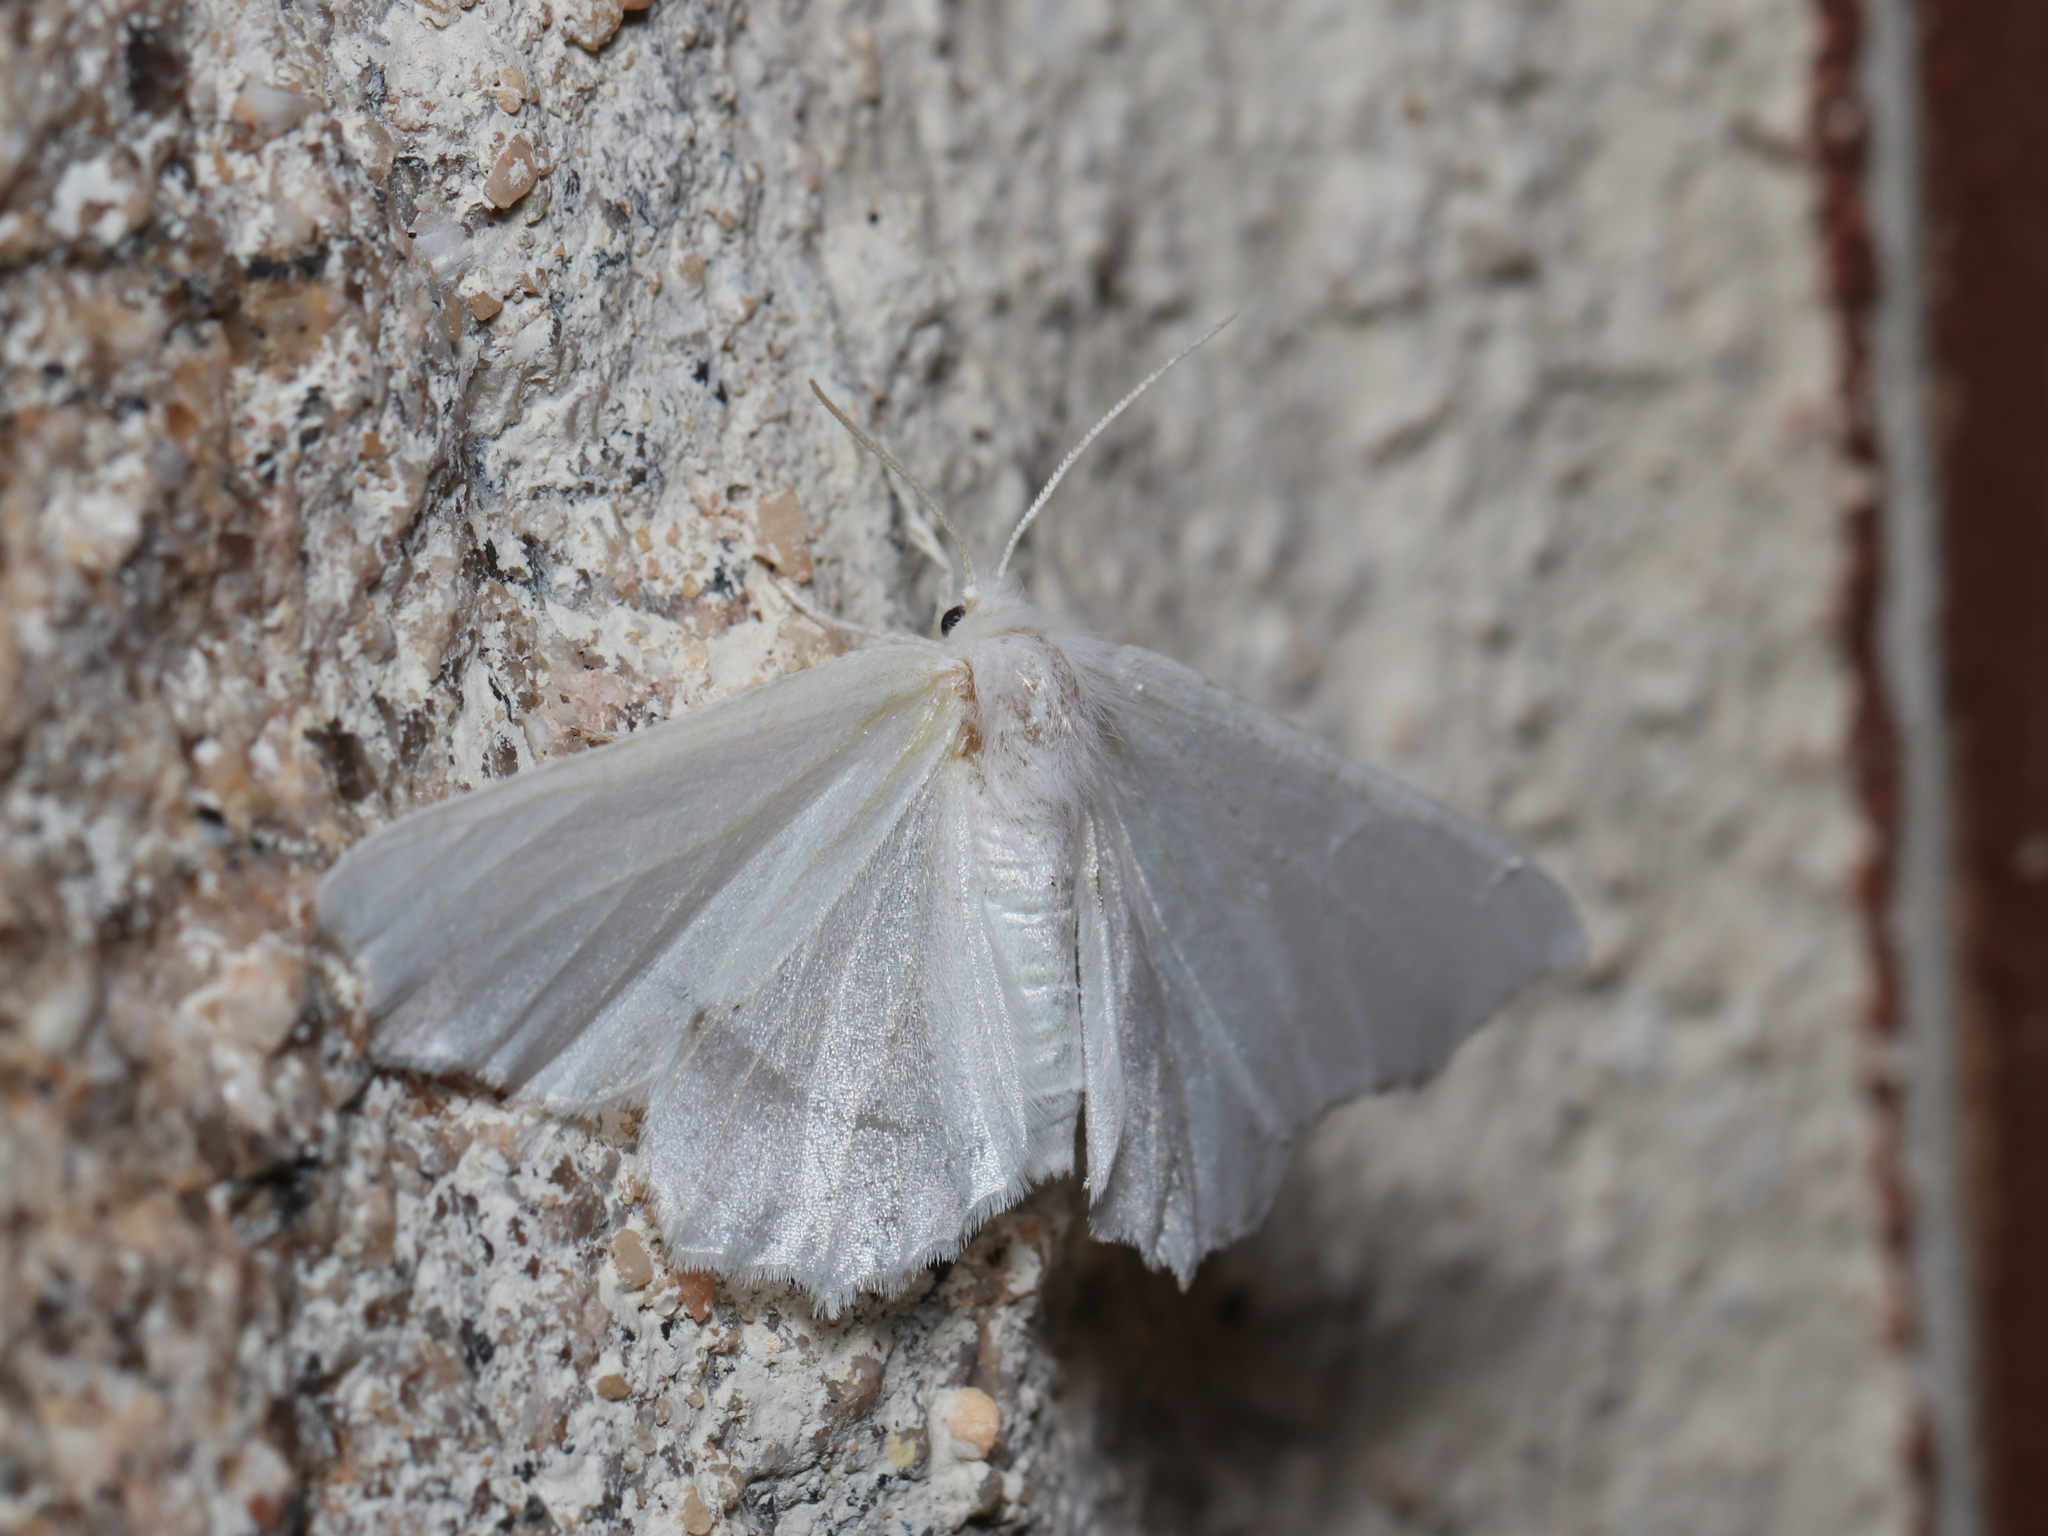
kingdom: Animalia
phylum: Arthropoda
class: Insecta
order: Lepidoptera
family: Geometridae
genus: Ennomos
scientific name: Ennomos subsignaria
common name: Elm spanworm
